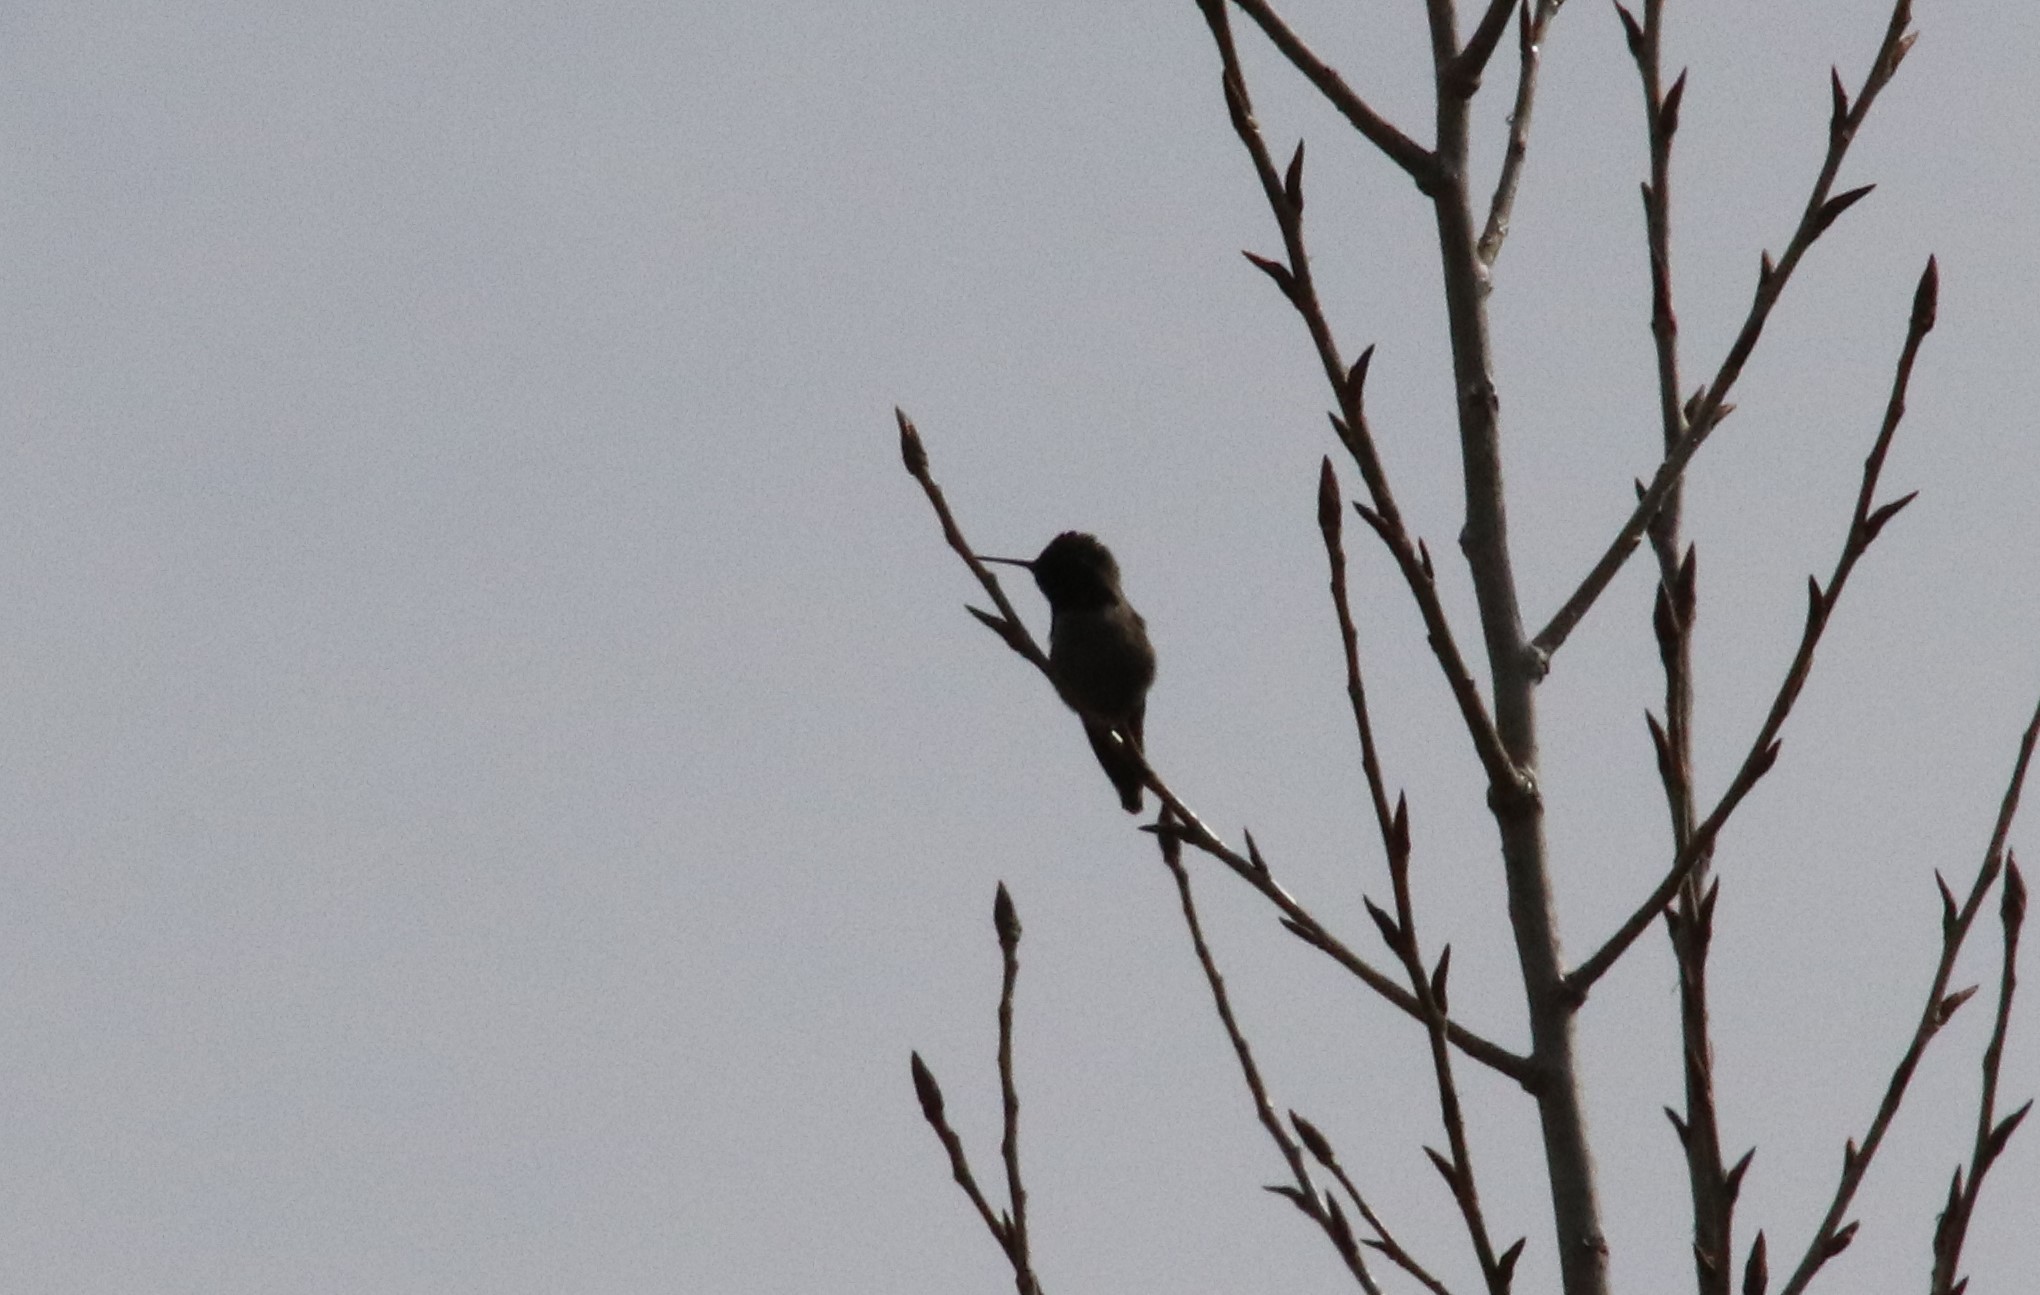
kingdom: Animalia
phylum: Chordata
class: Aves
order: Apodiformes
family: Trochilidae
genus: Calypte
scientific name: Calypte anna
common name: Anna's hummingbird
